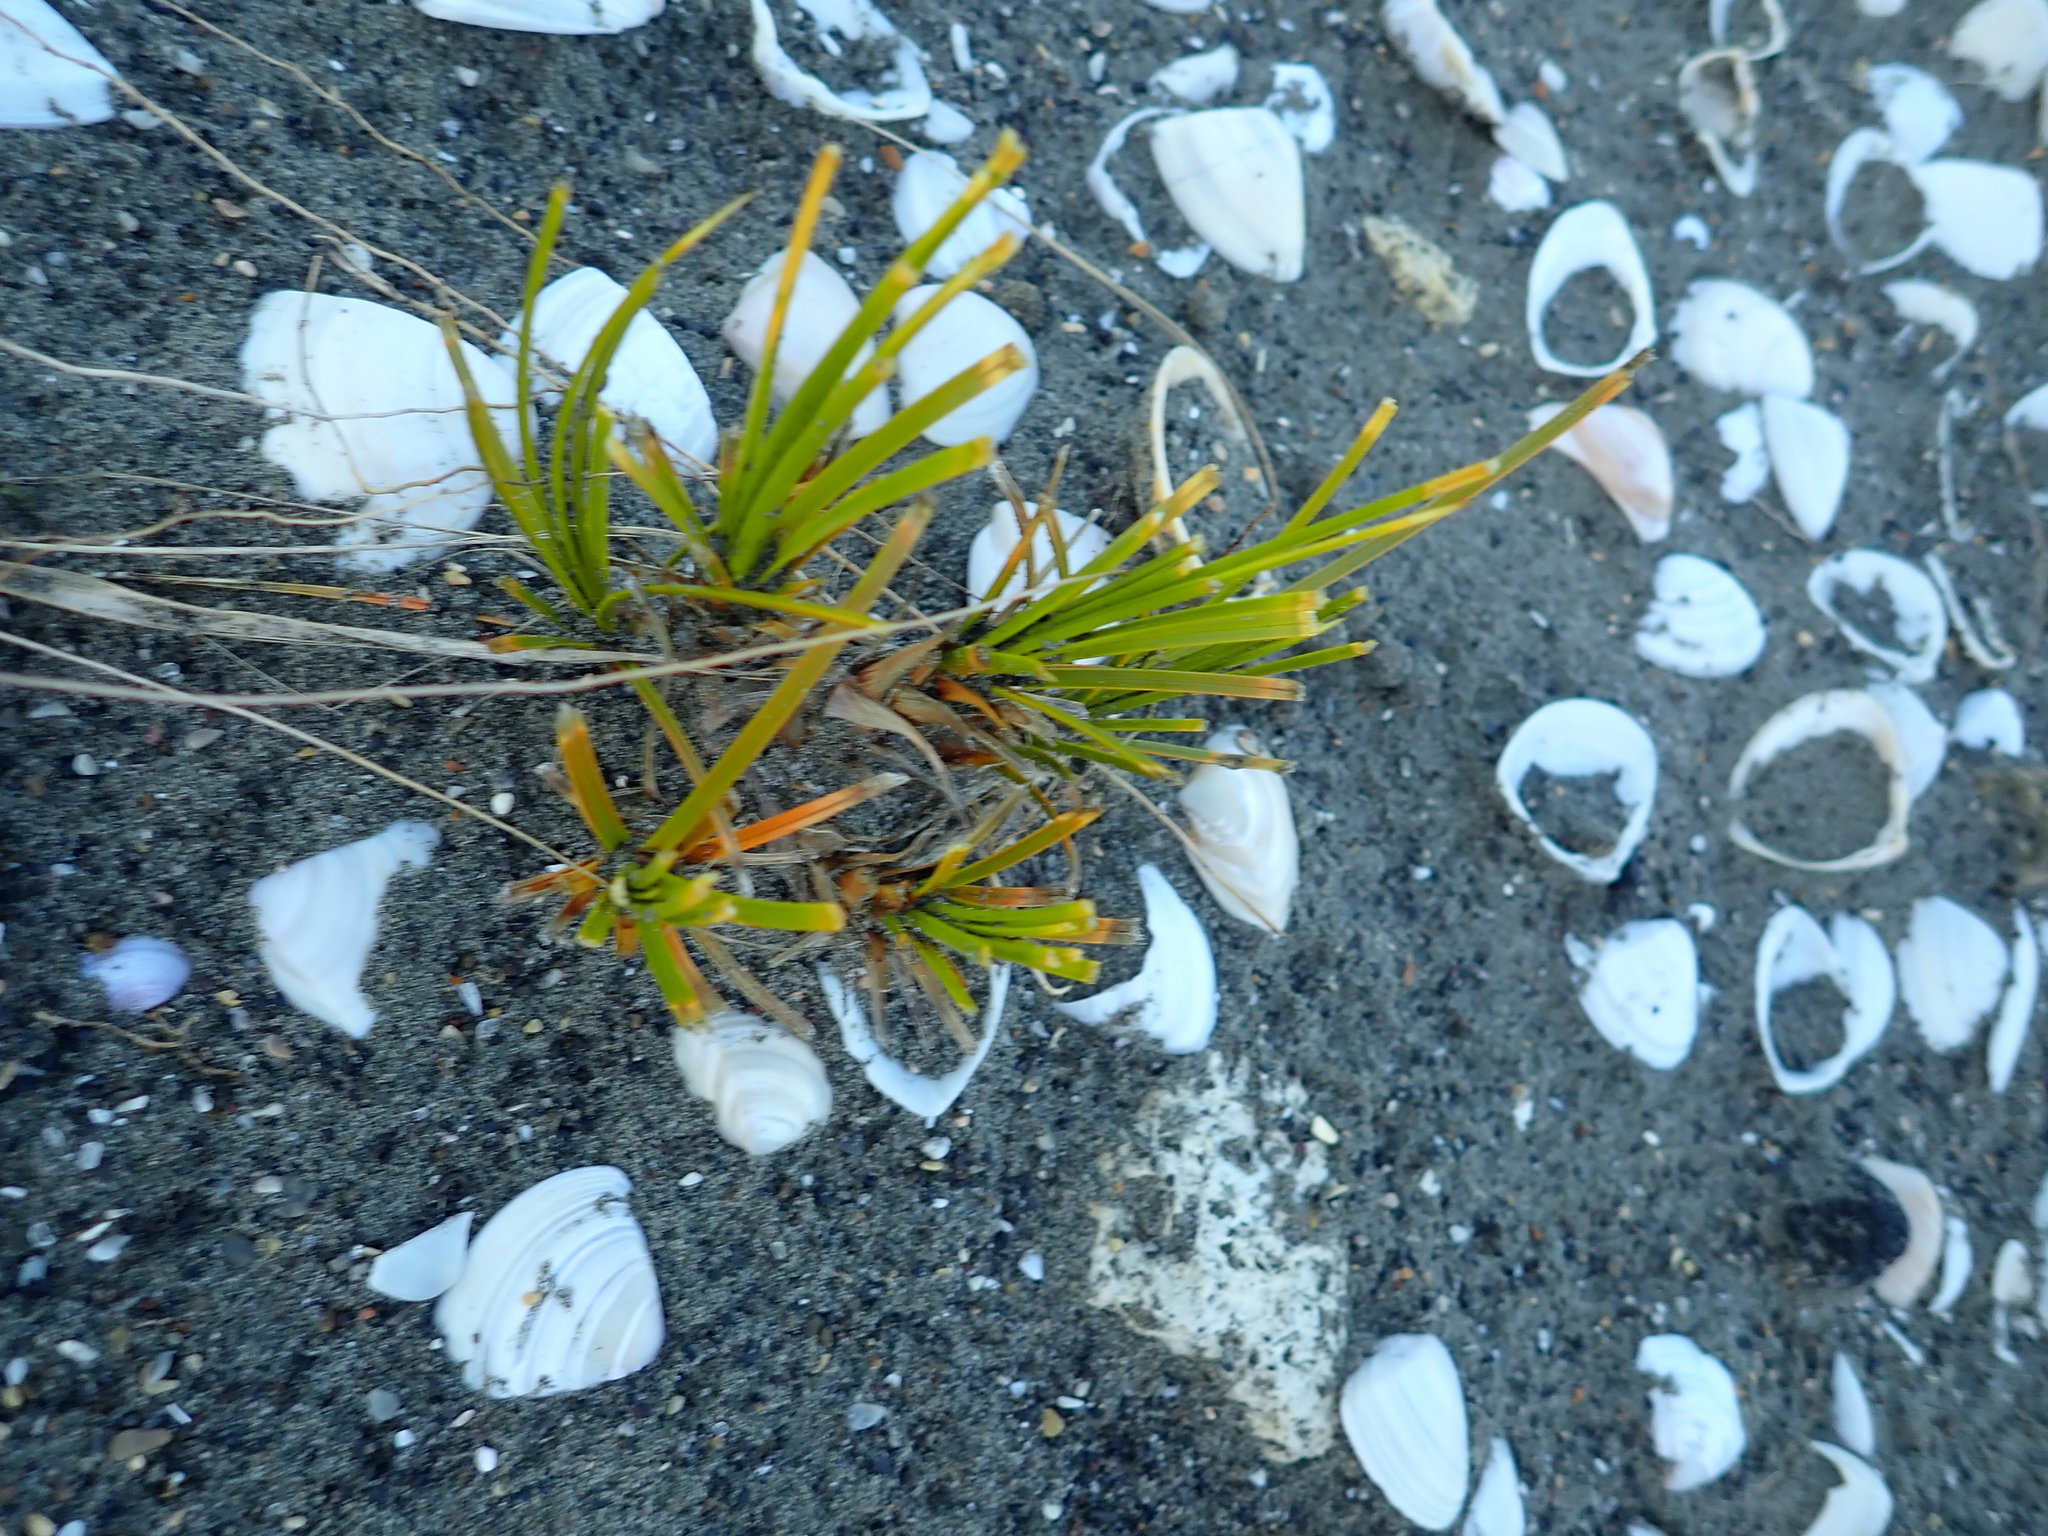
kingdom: Plantae
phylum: Tracheophyta
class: Liliopsida
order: Poales
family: Cyperaceae
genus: Ficinia
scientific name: Ficinia spiralis
